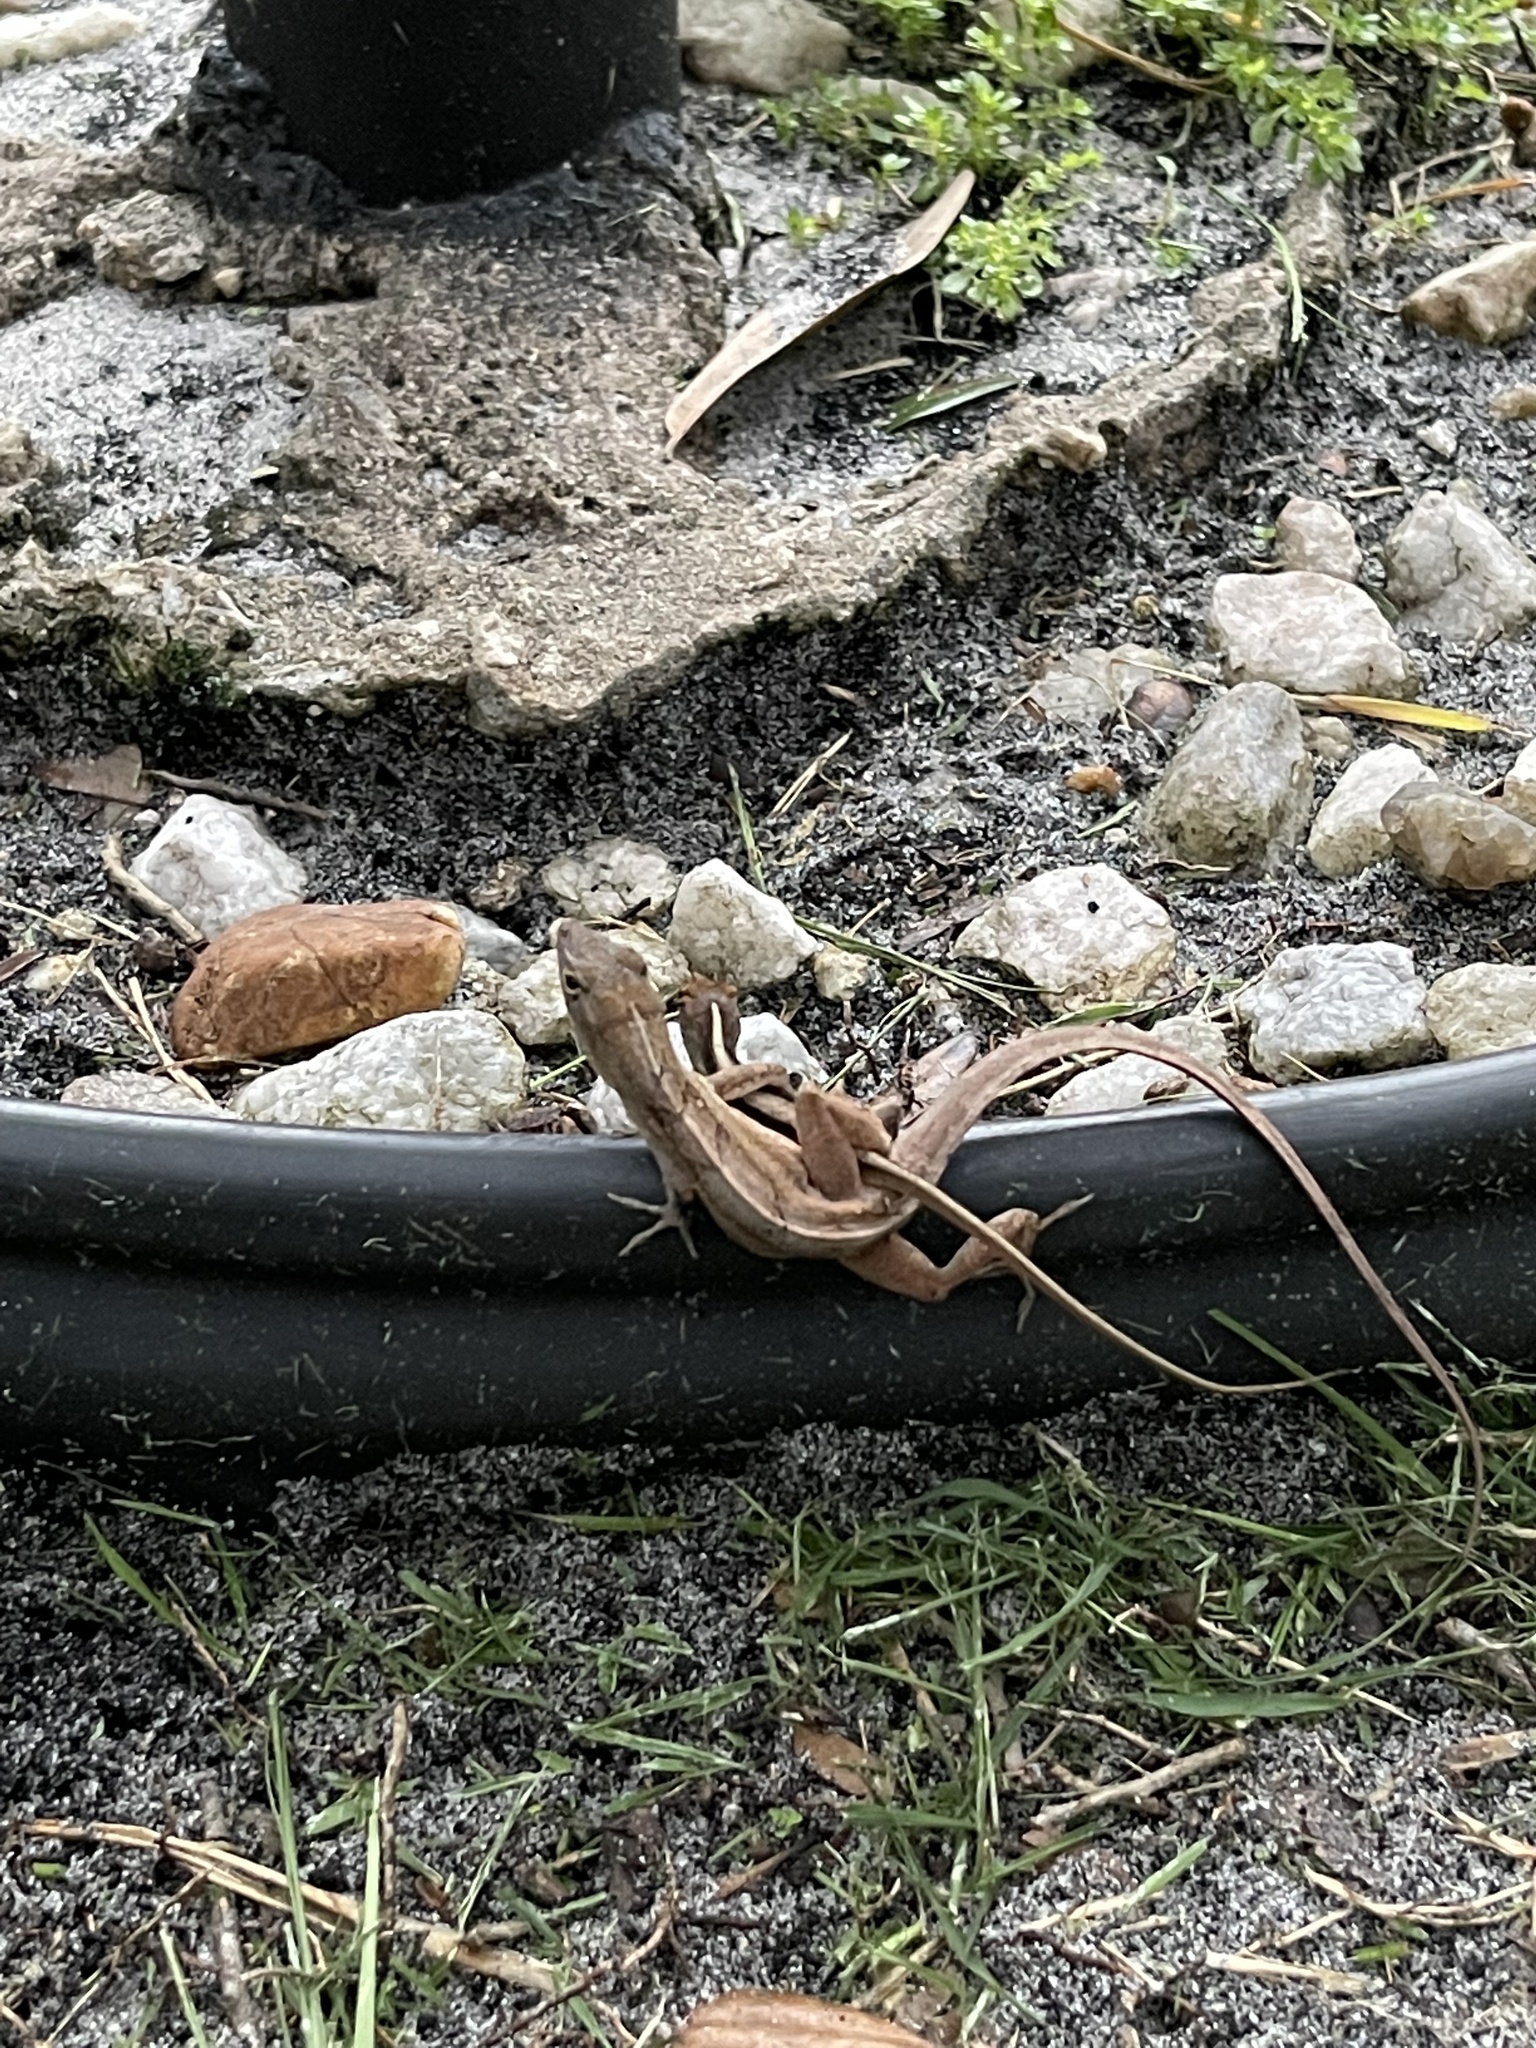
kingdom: Animalia
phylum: Chordata
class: Squamata
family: Dactyloidae
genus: Anolis
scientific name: Anolis sagrei
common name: Brown anole
